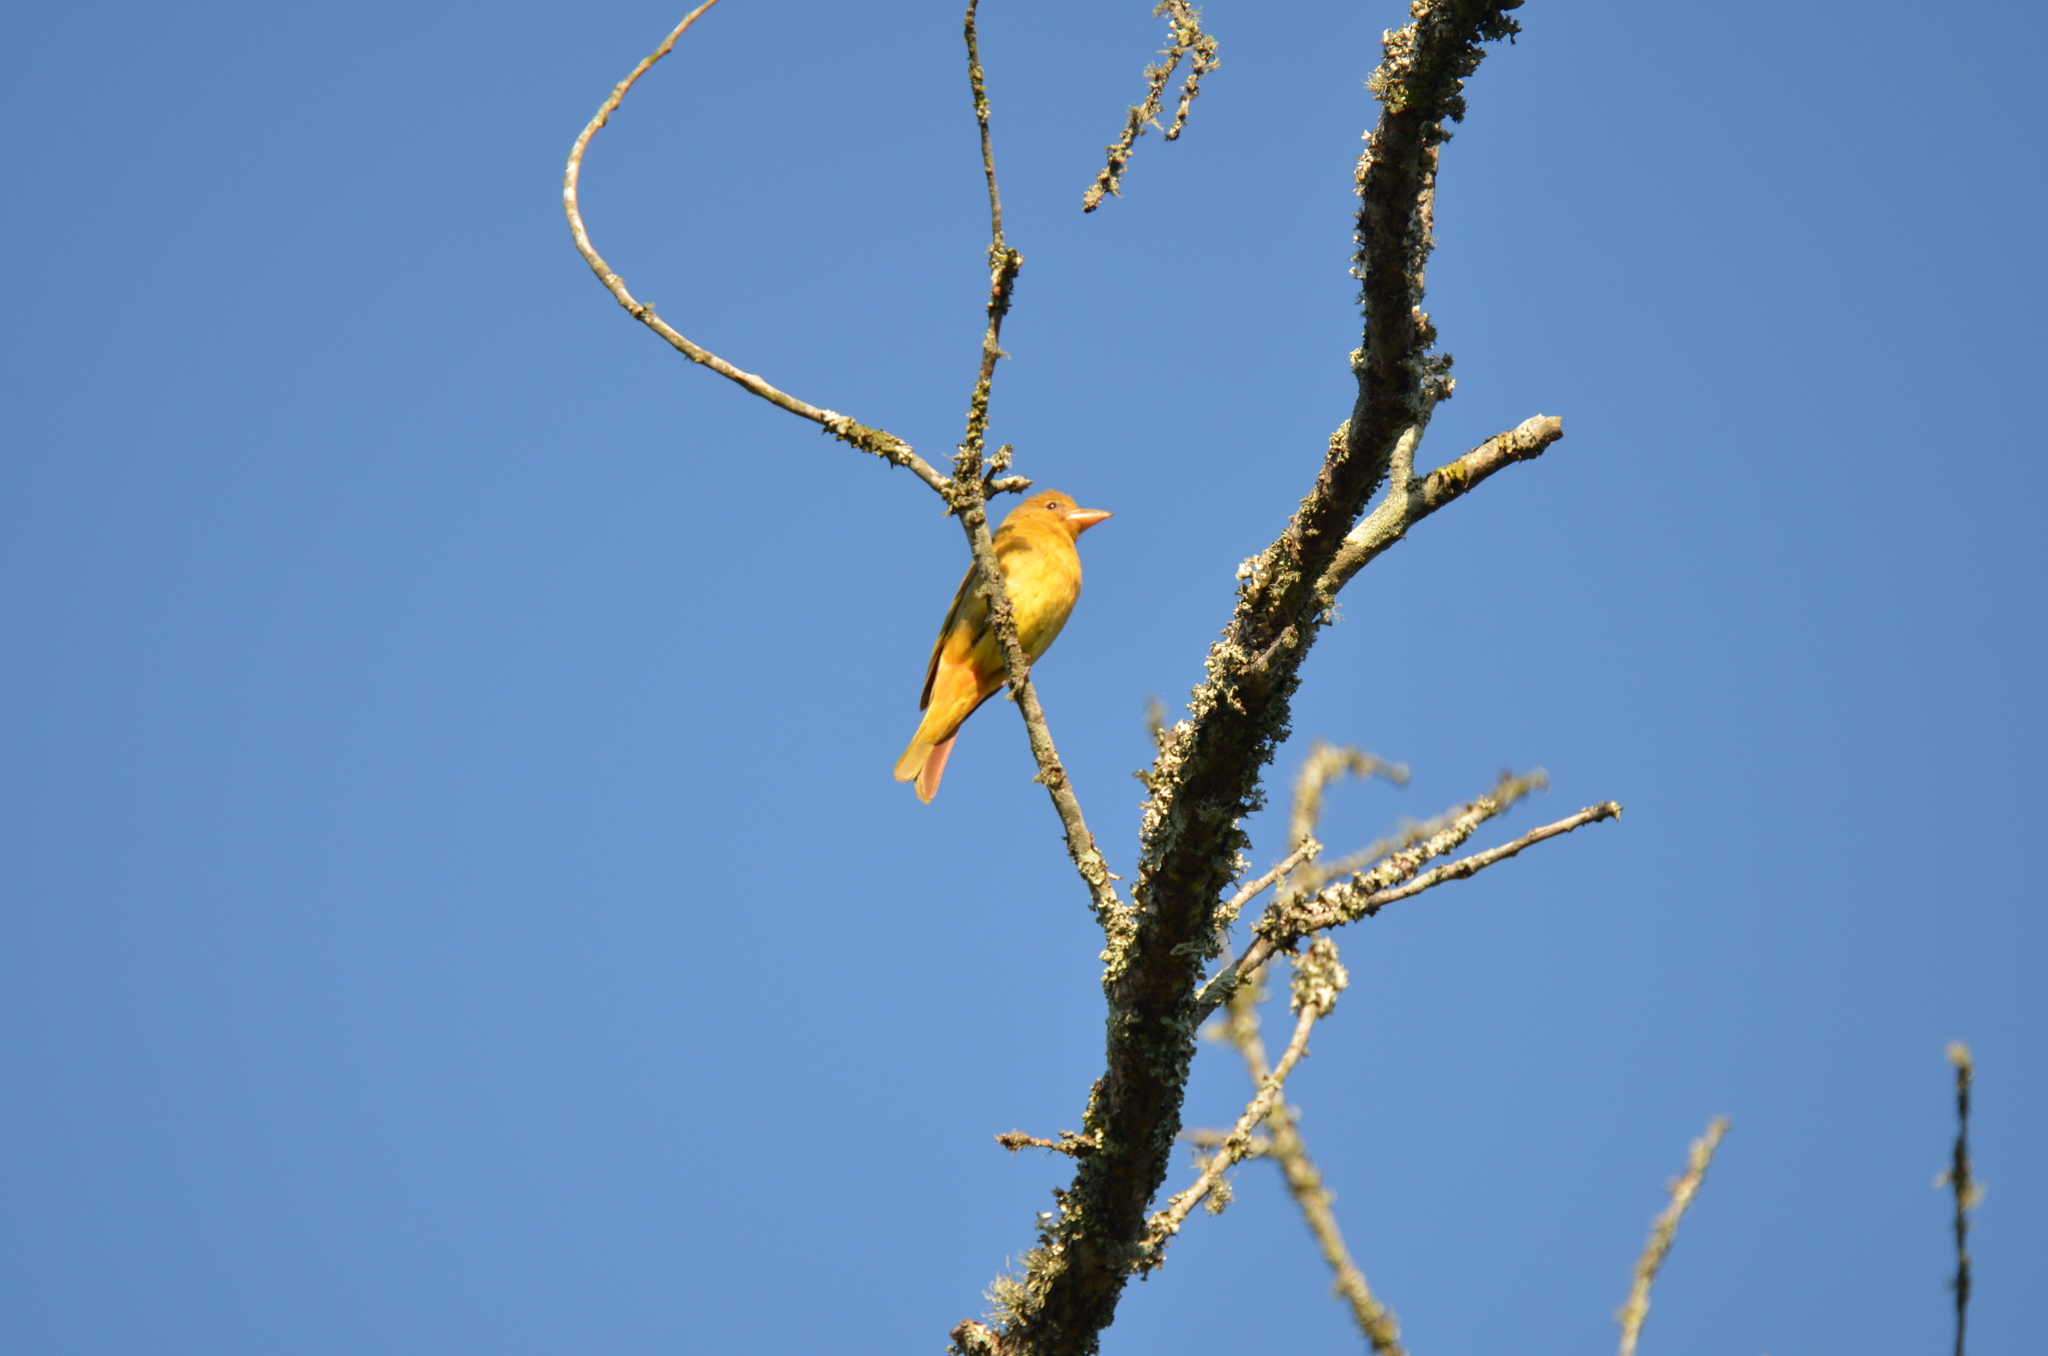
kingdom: Animalia
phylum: Chordata
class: Aves
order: Passeriformes
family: Cardinalidae
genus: Piranga
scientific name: Piranga rubra
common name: Summer tanager
